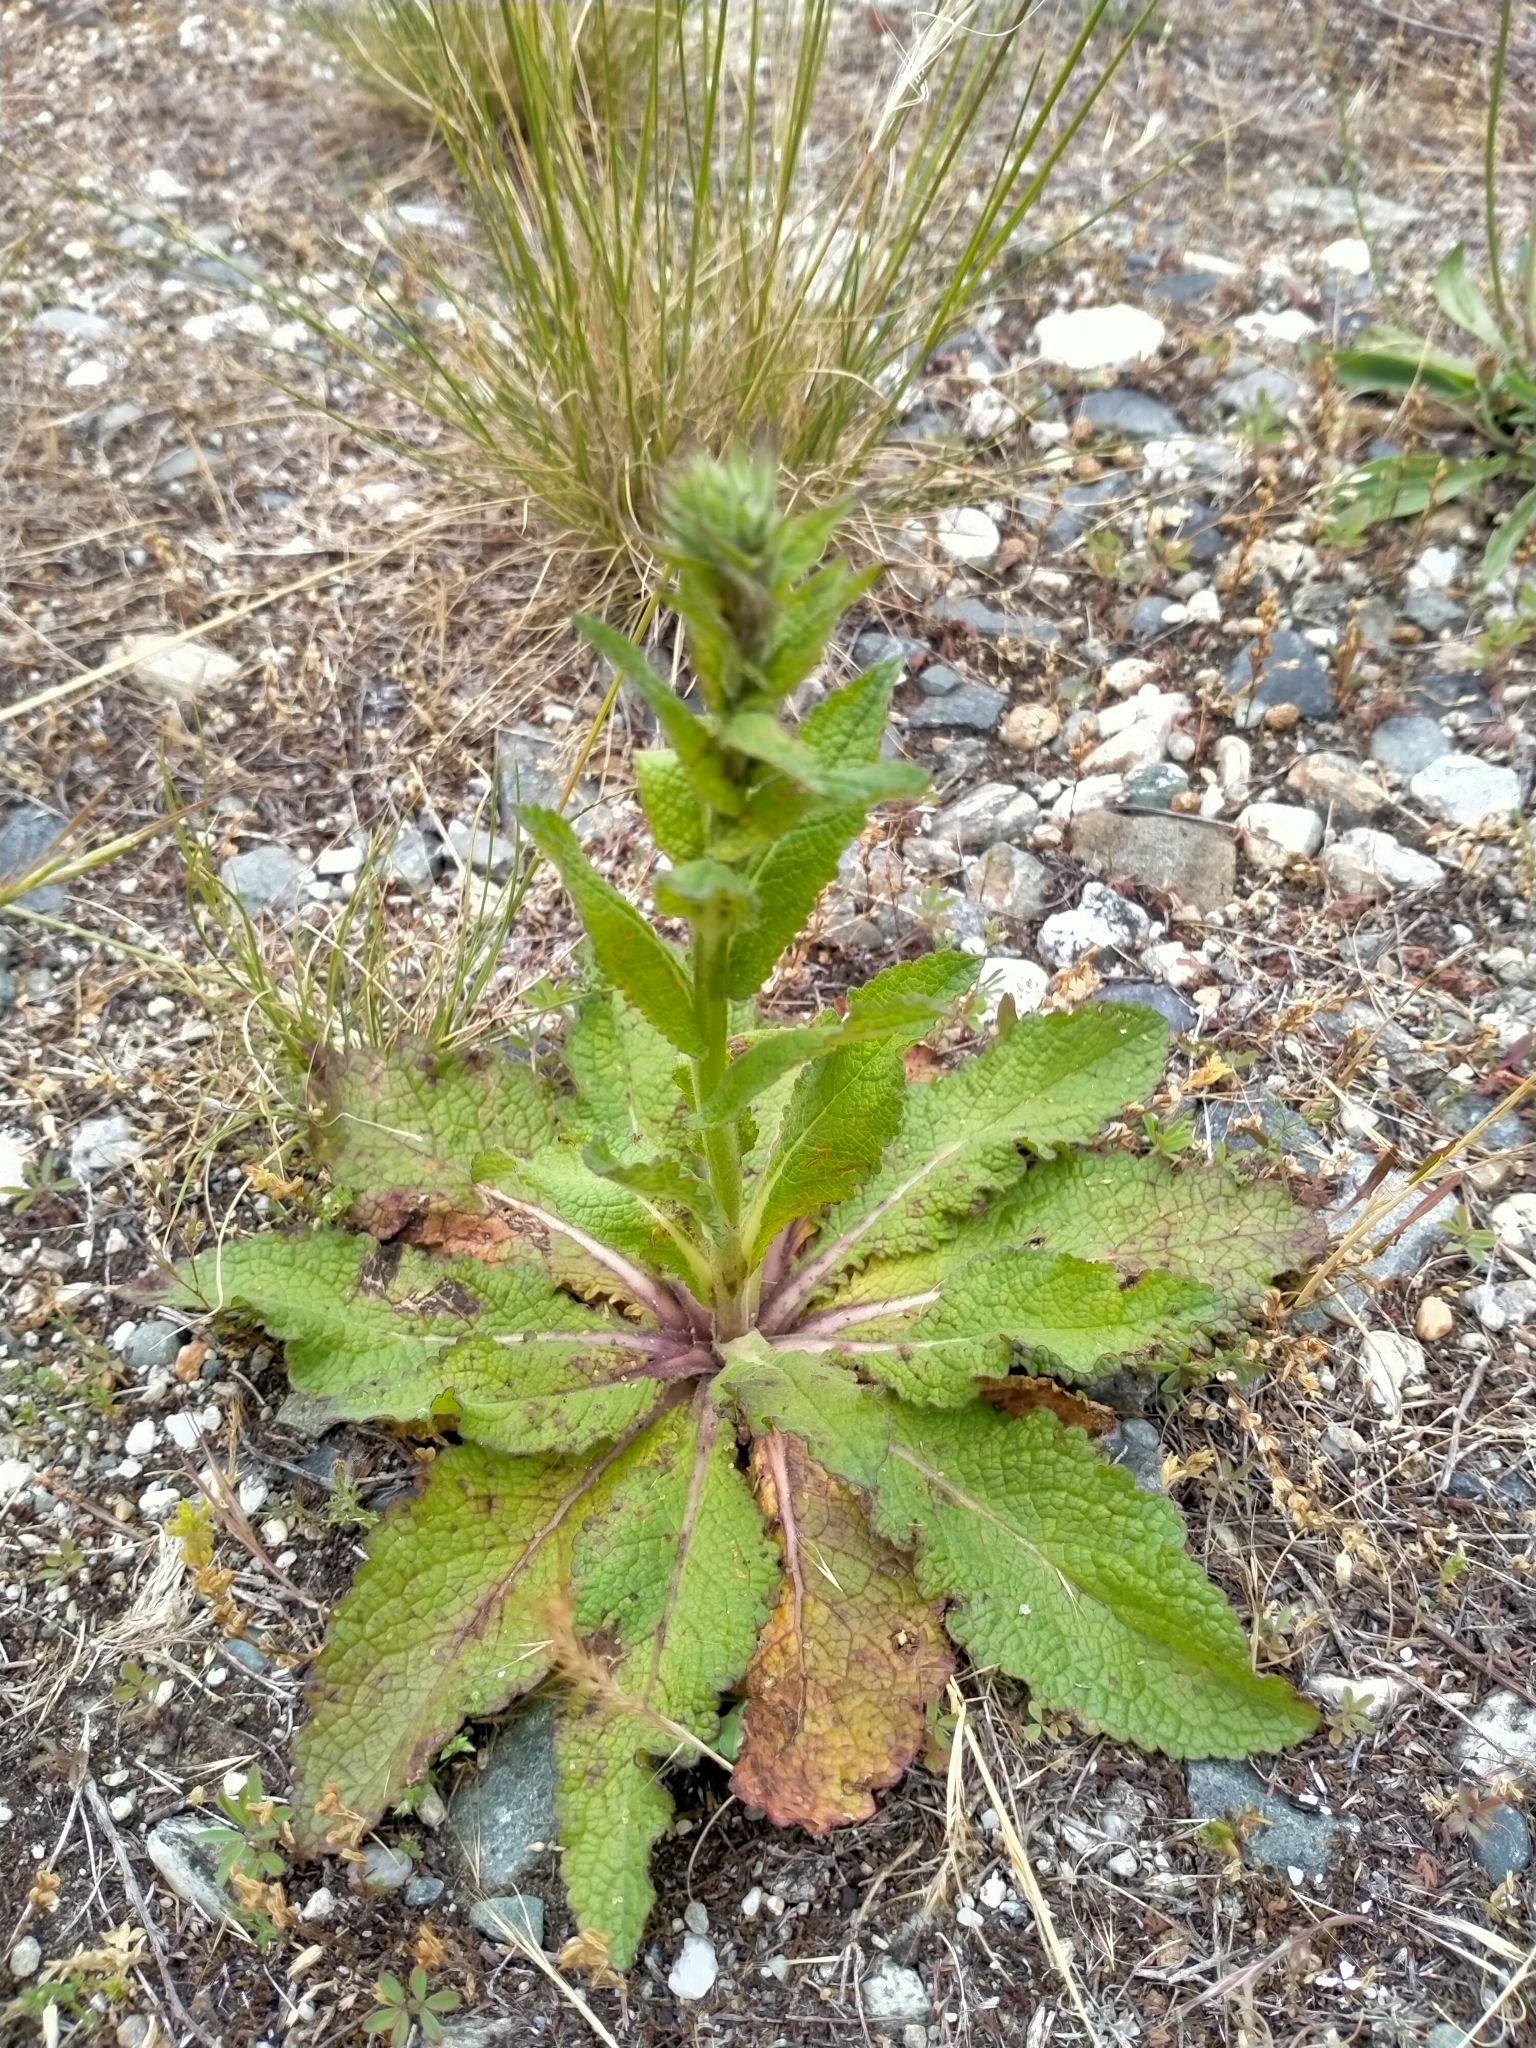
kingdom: Plantae
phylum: Tracheophyta
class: Magnoliopsida
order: Lamiales
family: Scrophulariaceae
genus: Verbascum
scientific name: Verbascum virgatum
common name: Twiggy mullein
